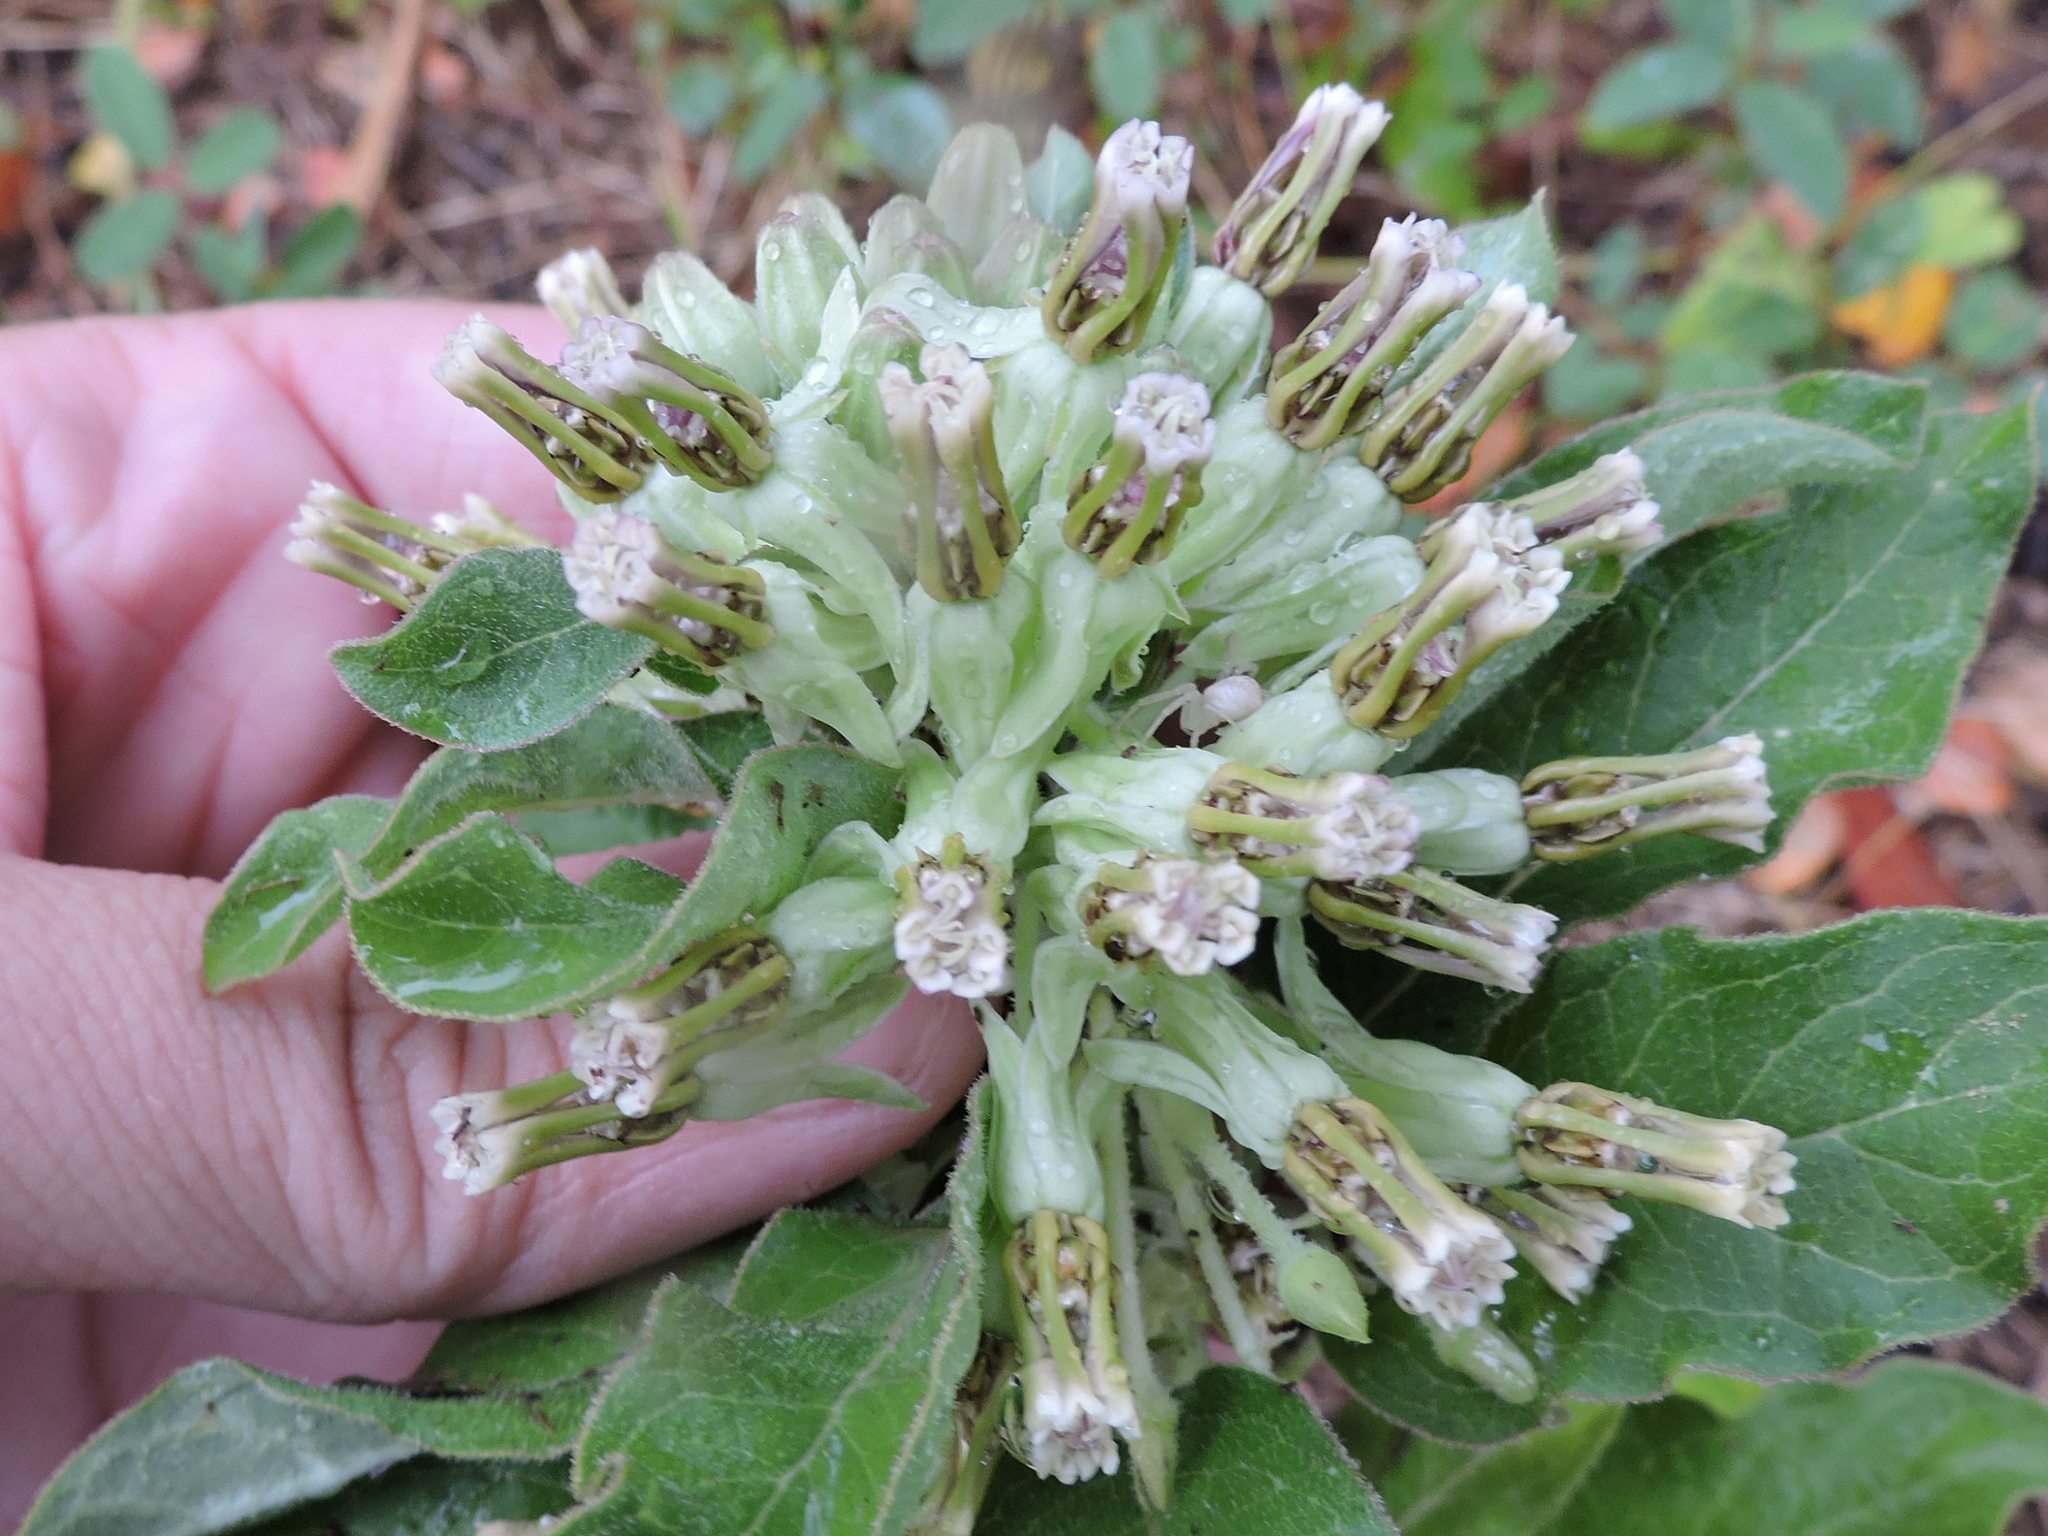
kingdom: Plantae
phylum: Tracheophyta
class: Magnoliopsida
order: Gentianales
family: Apocynaceae
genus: Asclepias
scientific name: Asclepias oenotheroides
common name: Zizotes milkweed
